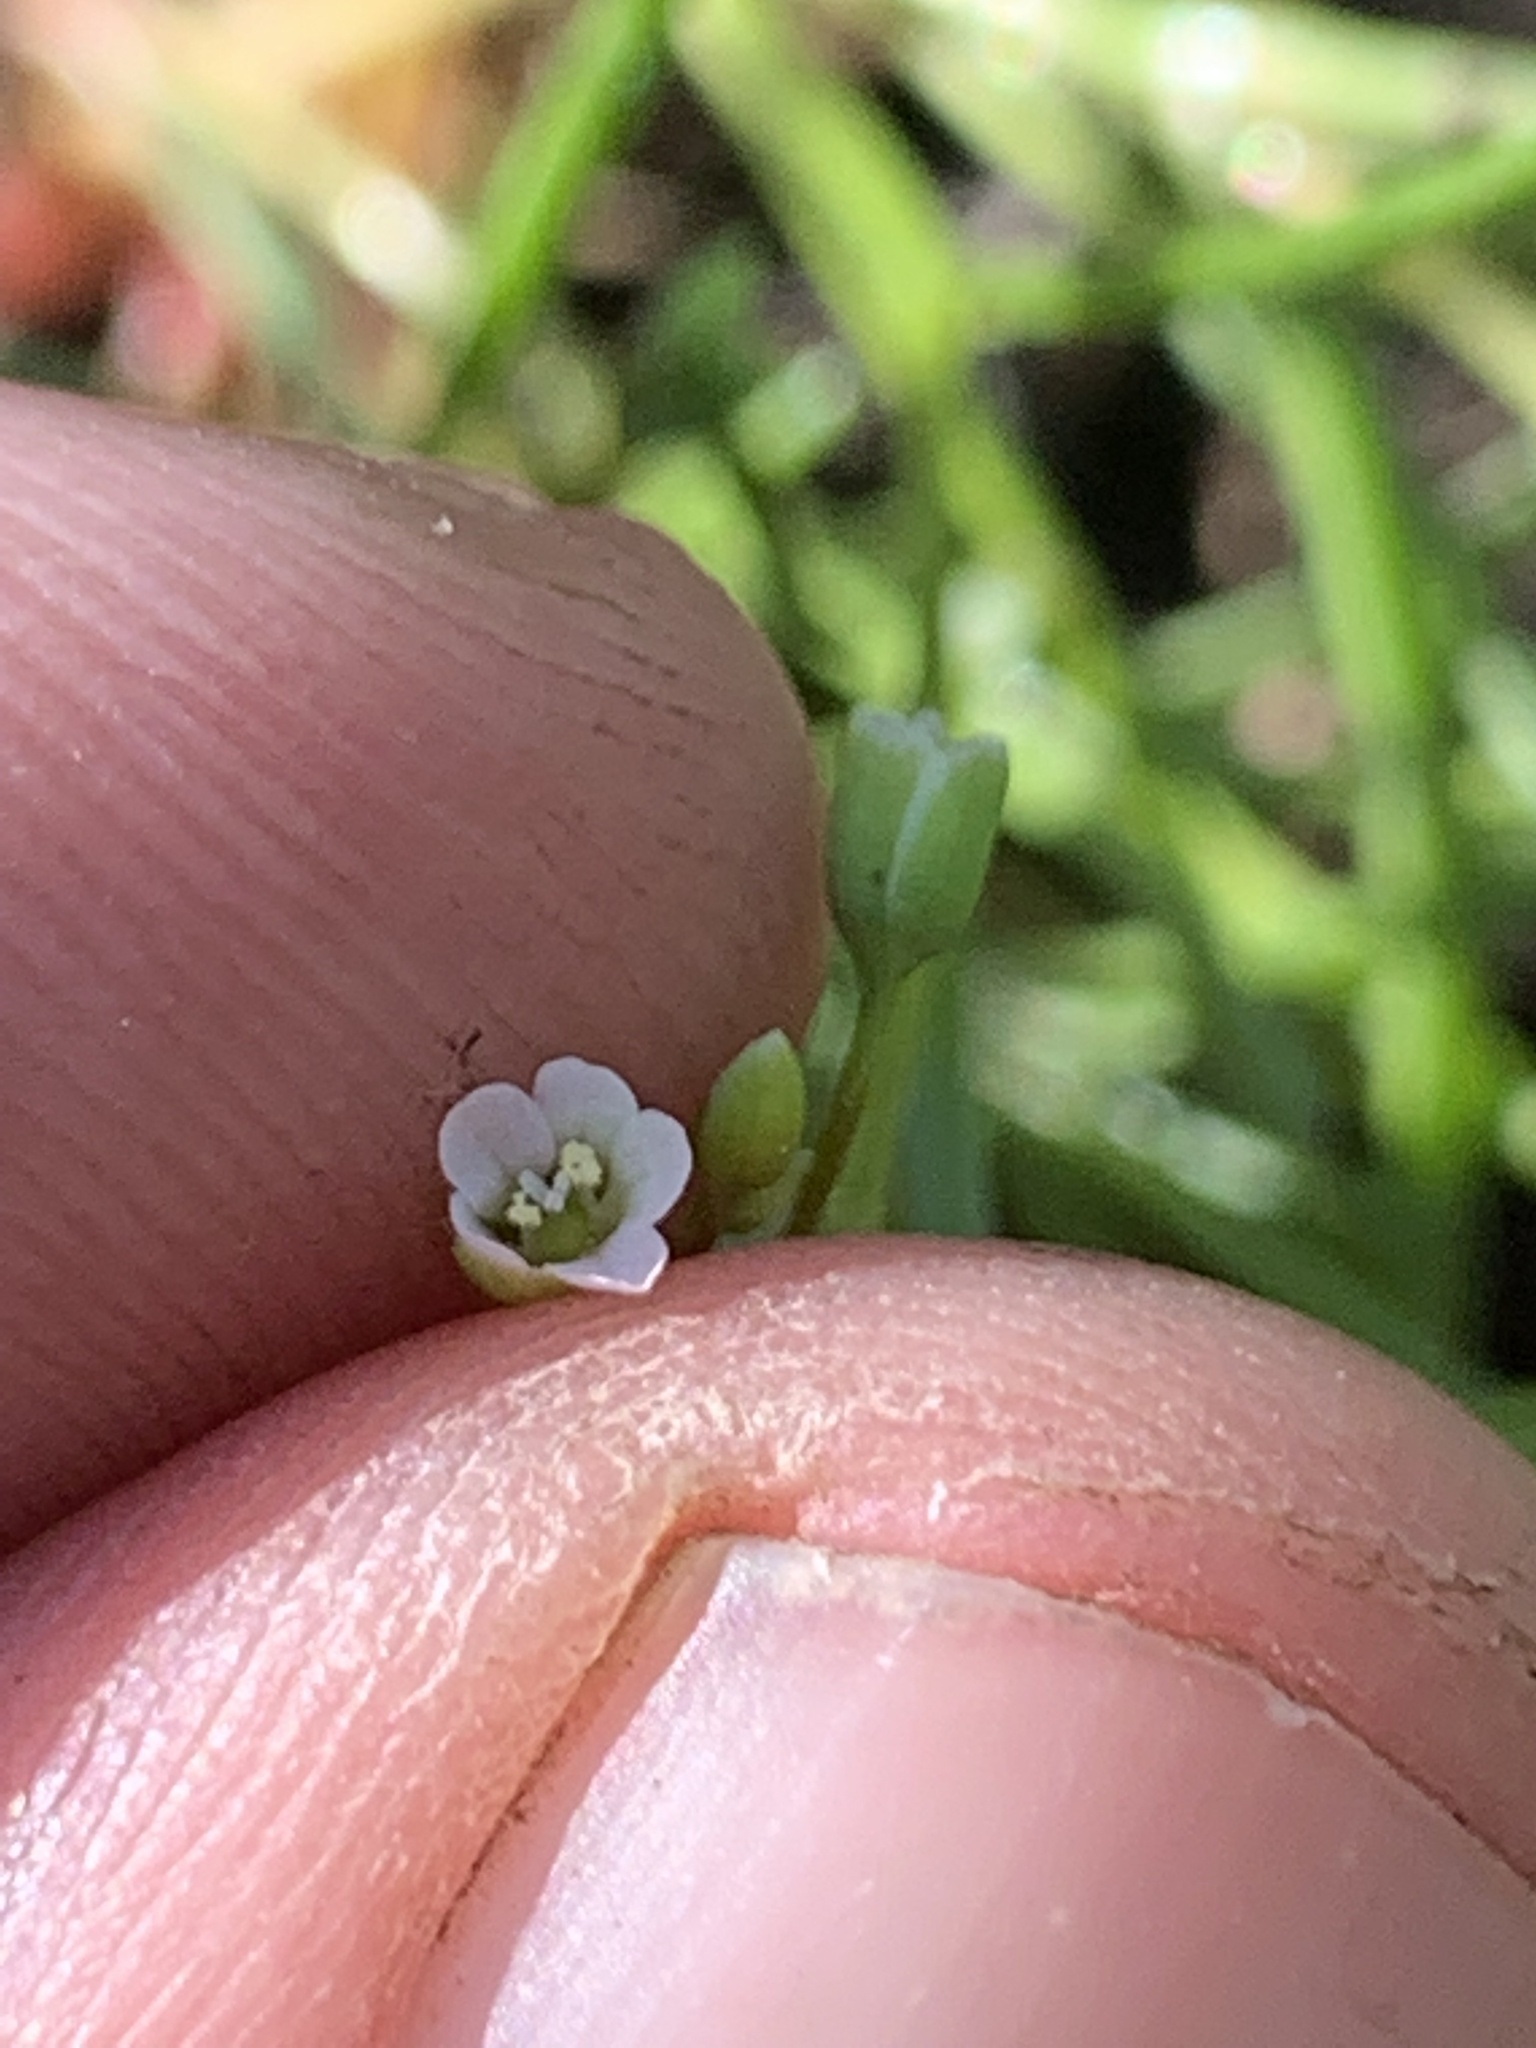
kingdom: Plantae
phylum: Tracheophyta
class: Magnoliopsida
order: Caryophyllales
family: Montiaceae
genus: Montia
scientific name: Montia linearis
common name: Narrow-leaf montia
